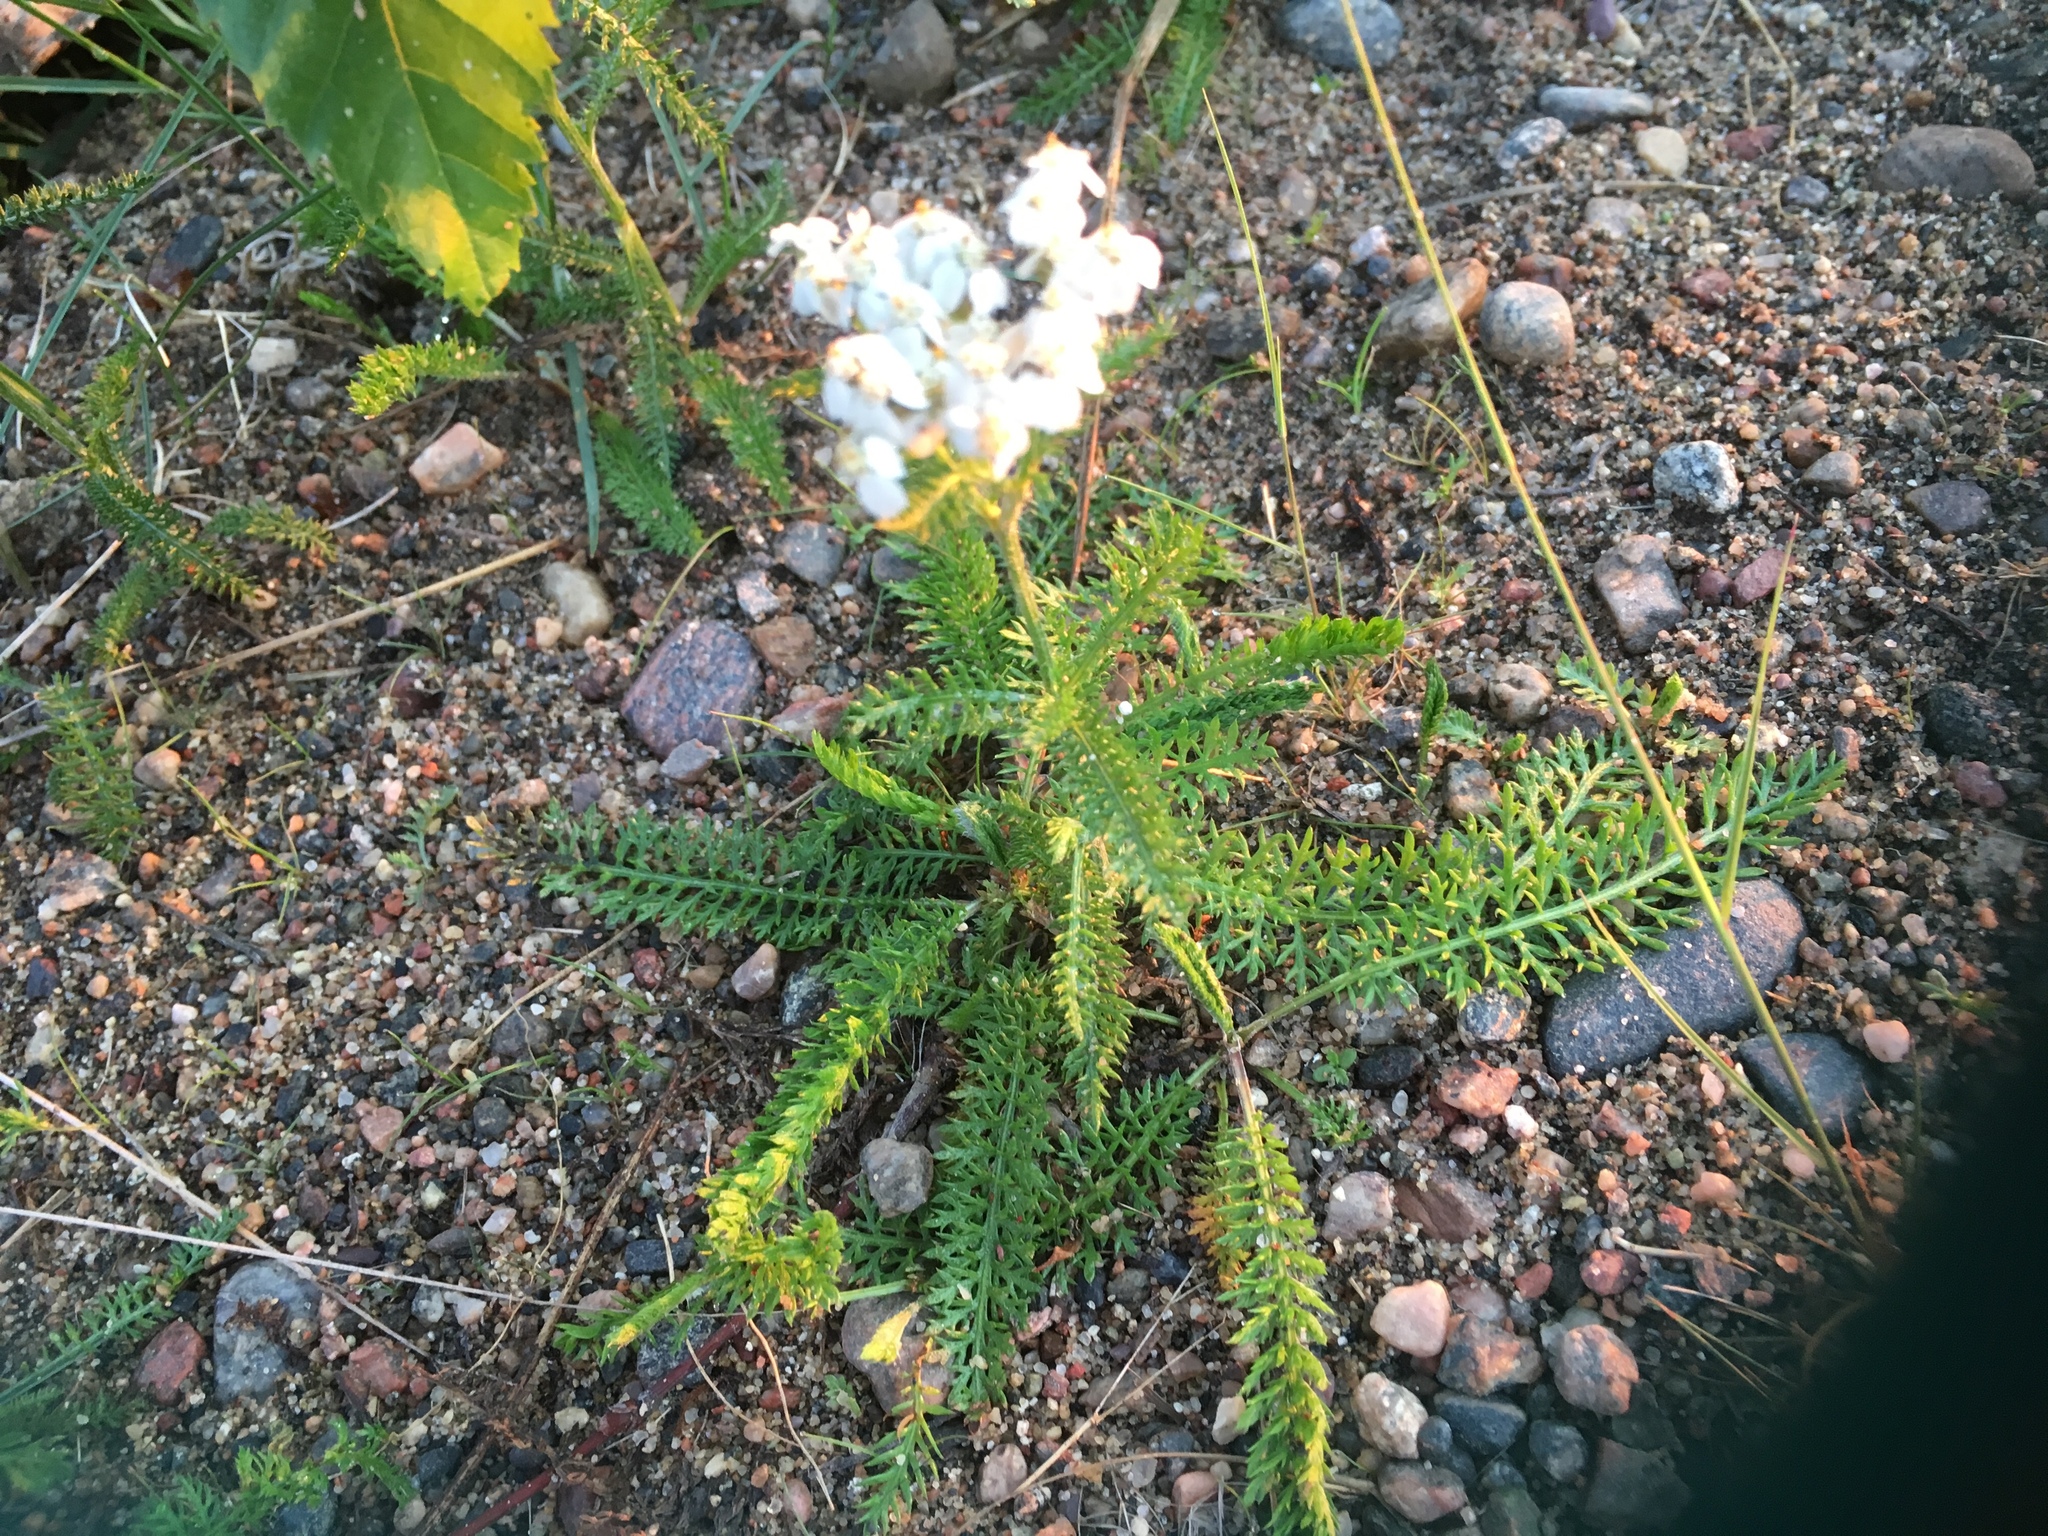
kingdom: Plantae
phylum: Tracheophyta
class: Magnoliopsida
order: Asterales
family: Asteraceae
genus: Achillea
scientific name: Achillea millefolium
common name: Yarrow
